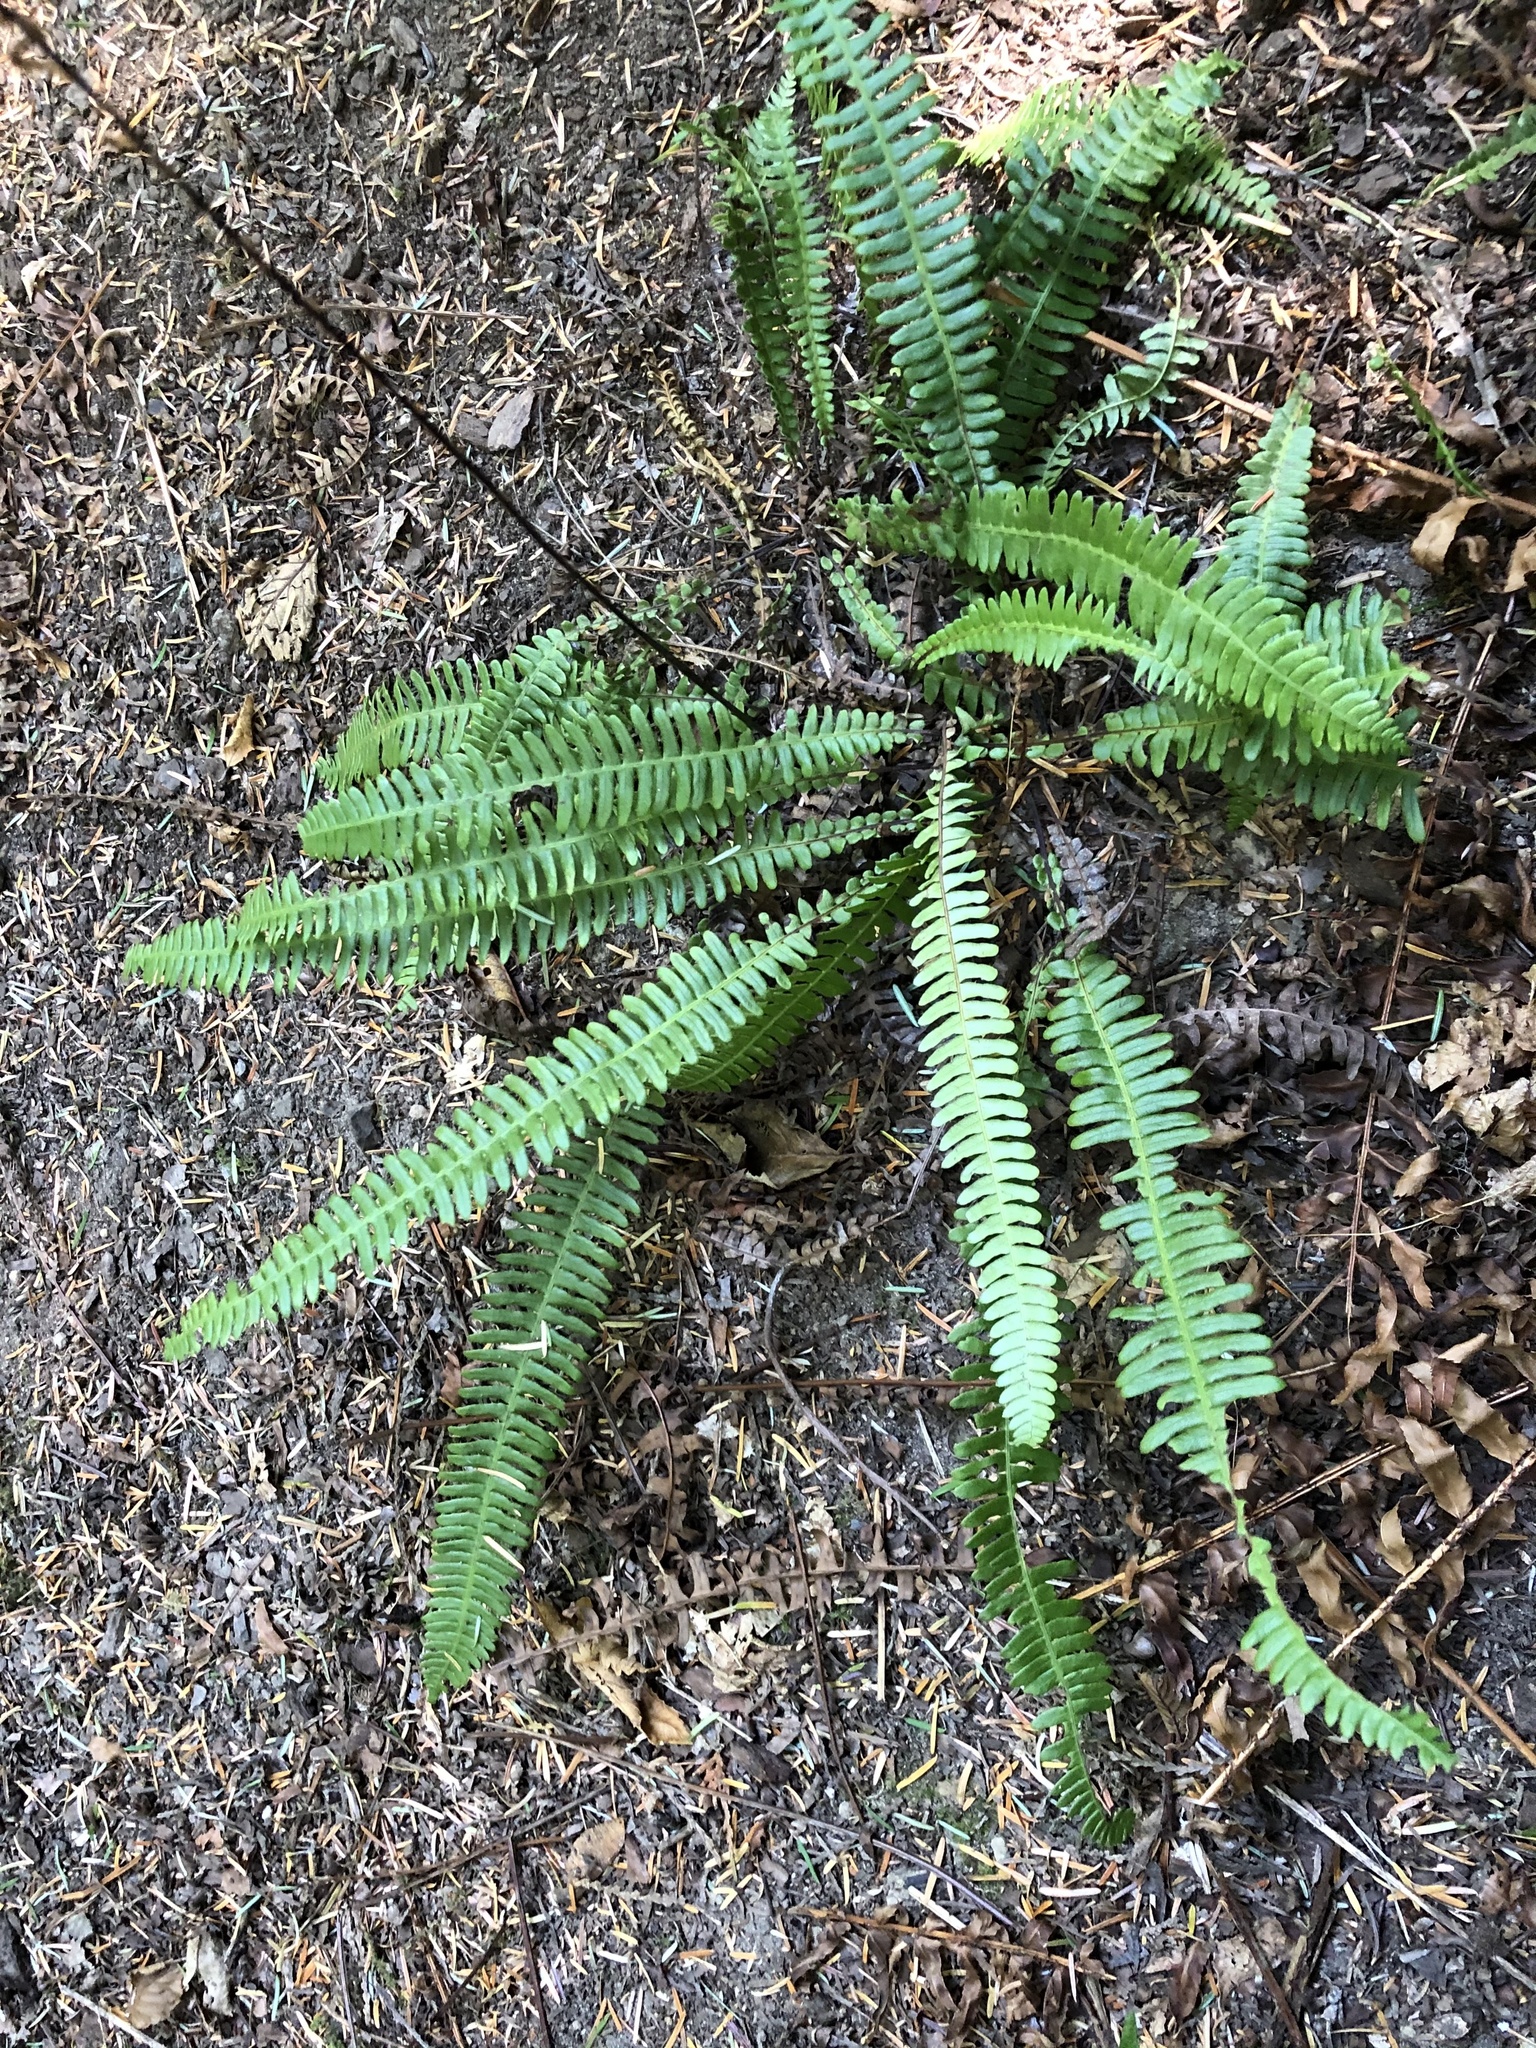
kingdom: Plantae
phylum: Tracheophyta
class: Polypodiopsida
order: Polypodiales
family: Blechnaceae
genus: Struthiopteris
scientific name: Struthiopteris spicant
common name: Deer fern
